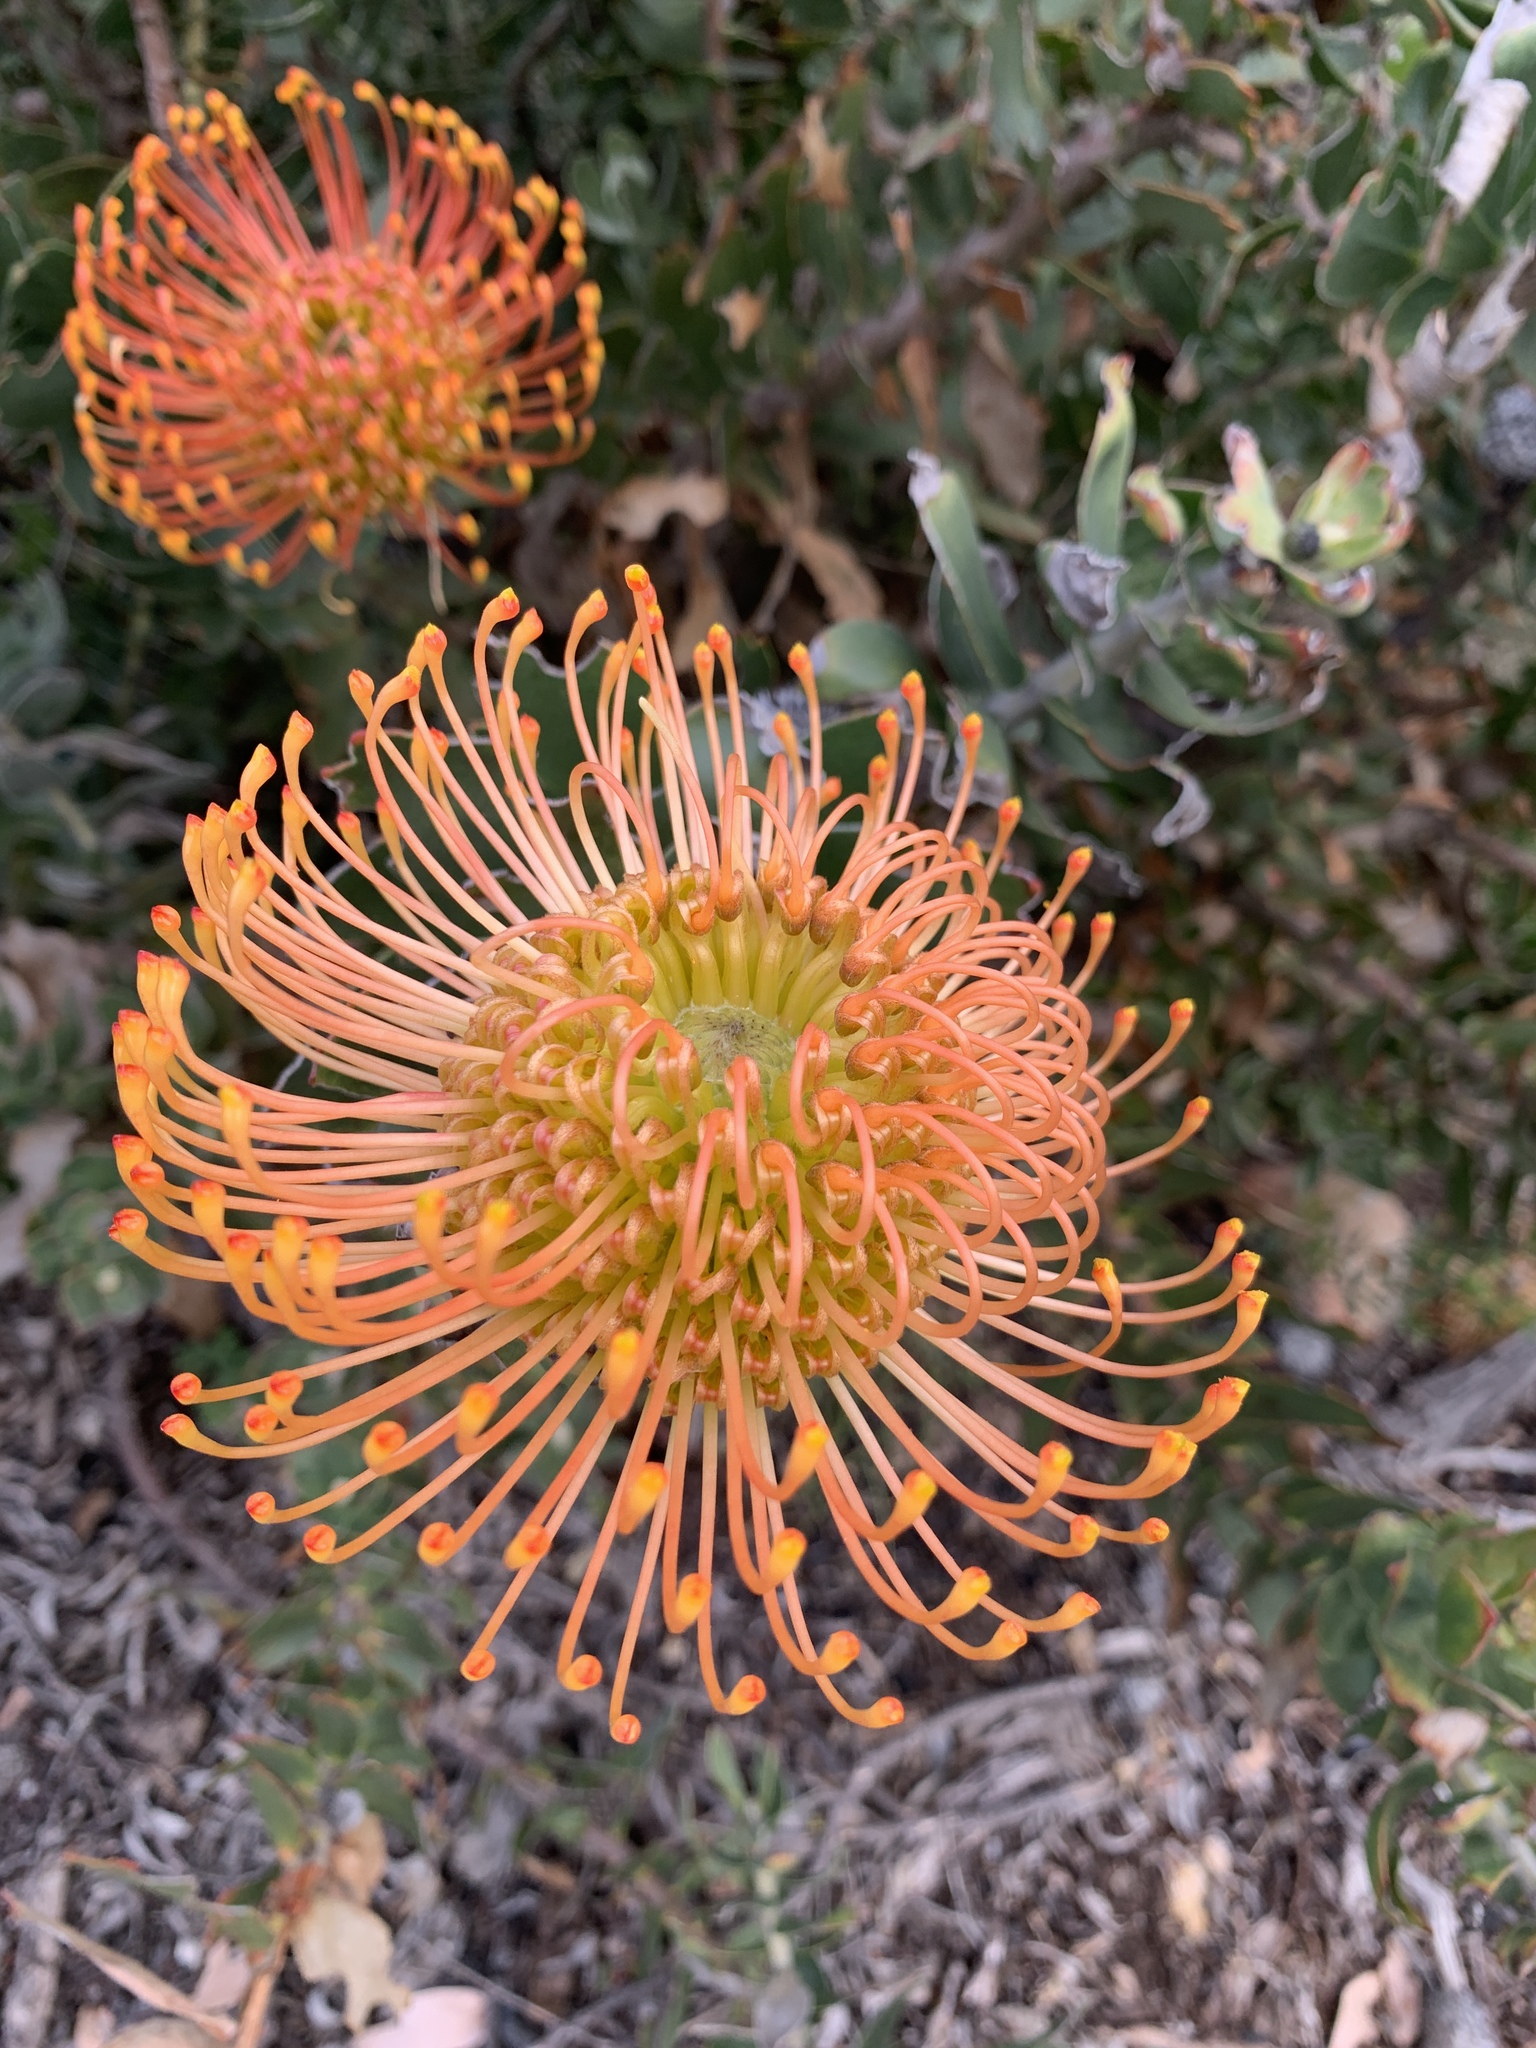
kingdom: Plantae
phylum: Tracheophyta
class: Magnoliopsida
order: Proteales
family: Proteaceae
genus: Leucospermum
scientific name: Leucospermum
